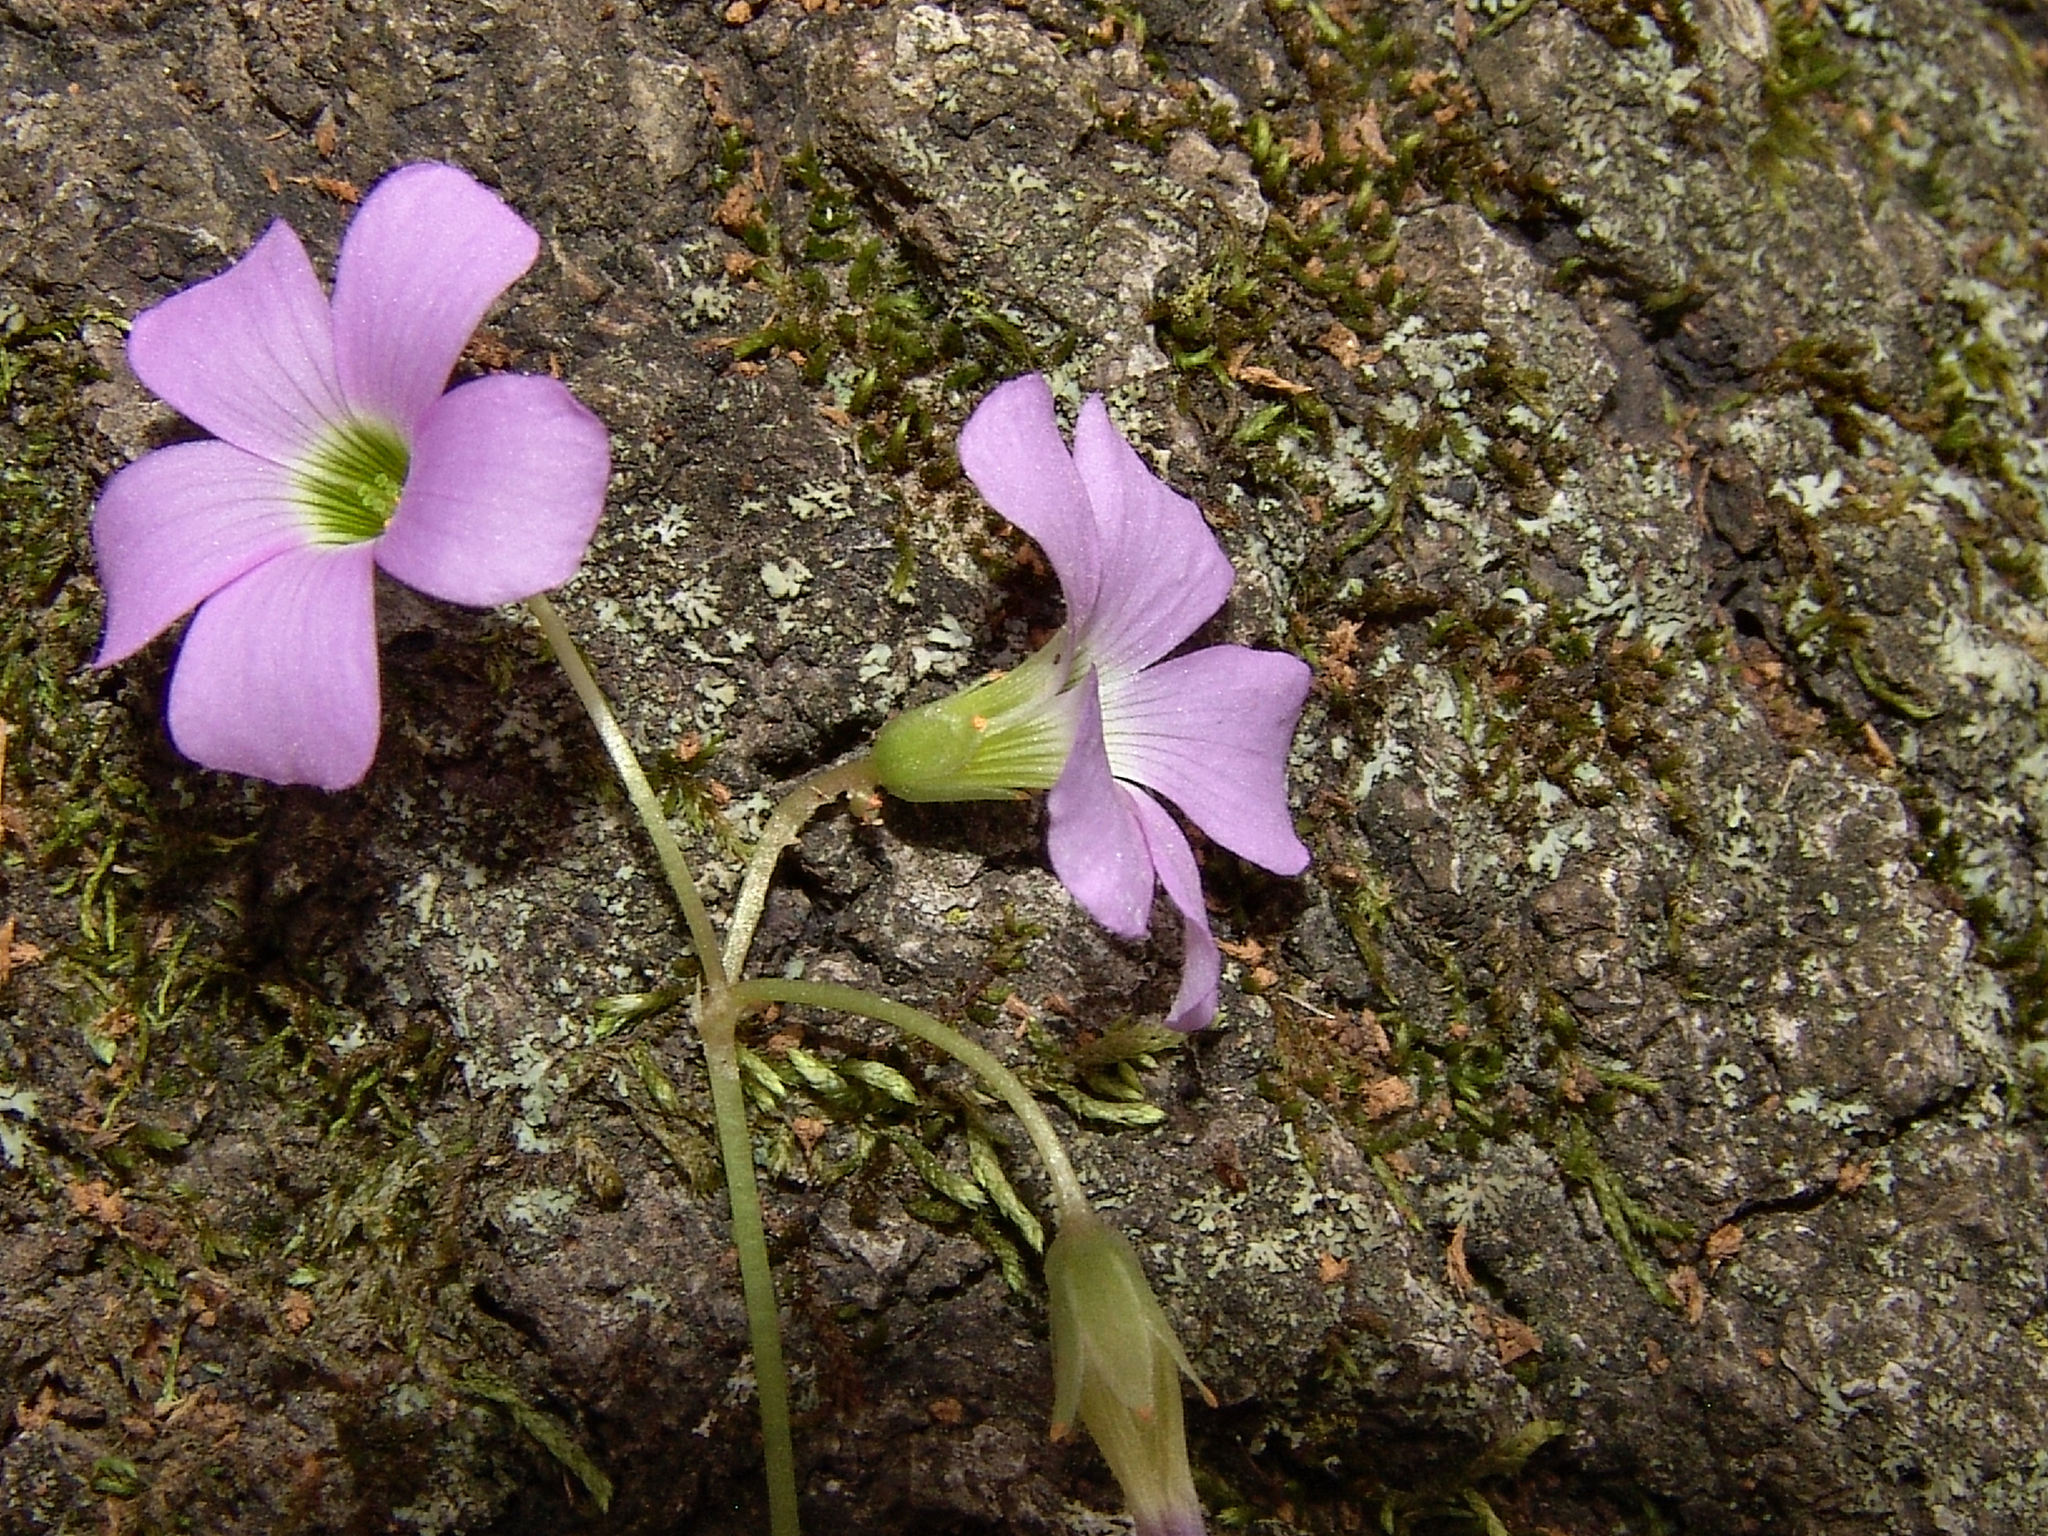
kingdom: Plantae
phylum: Tracheophyta
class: Magnoliopsida
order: Oxalidales
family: Oxalidaceae
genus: Oxalis
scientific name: Oxalis violacea
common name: Violet wood-sorrel
